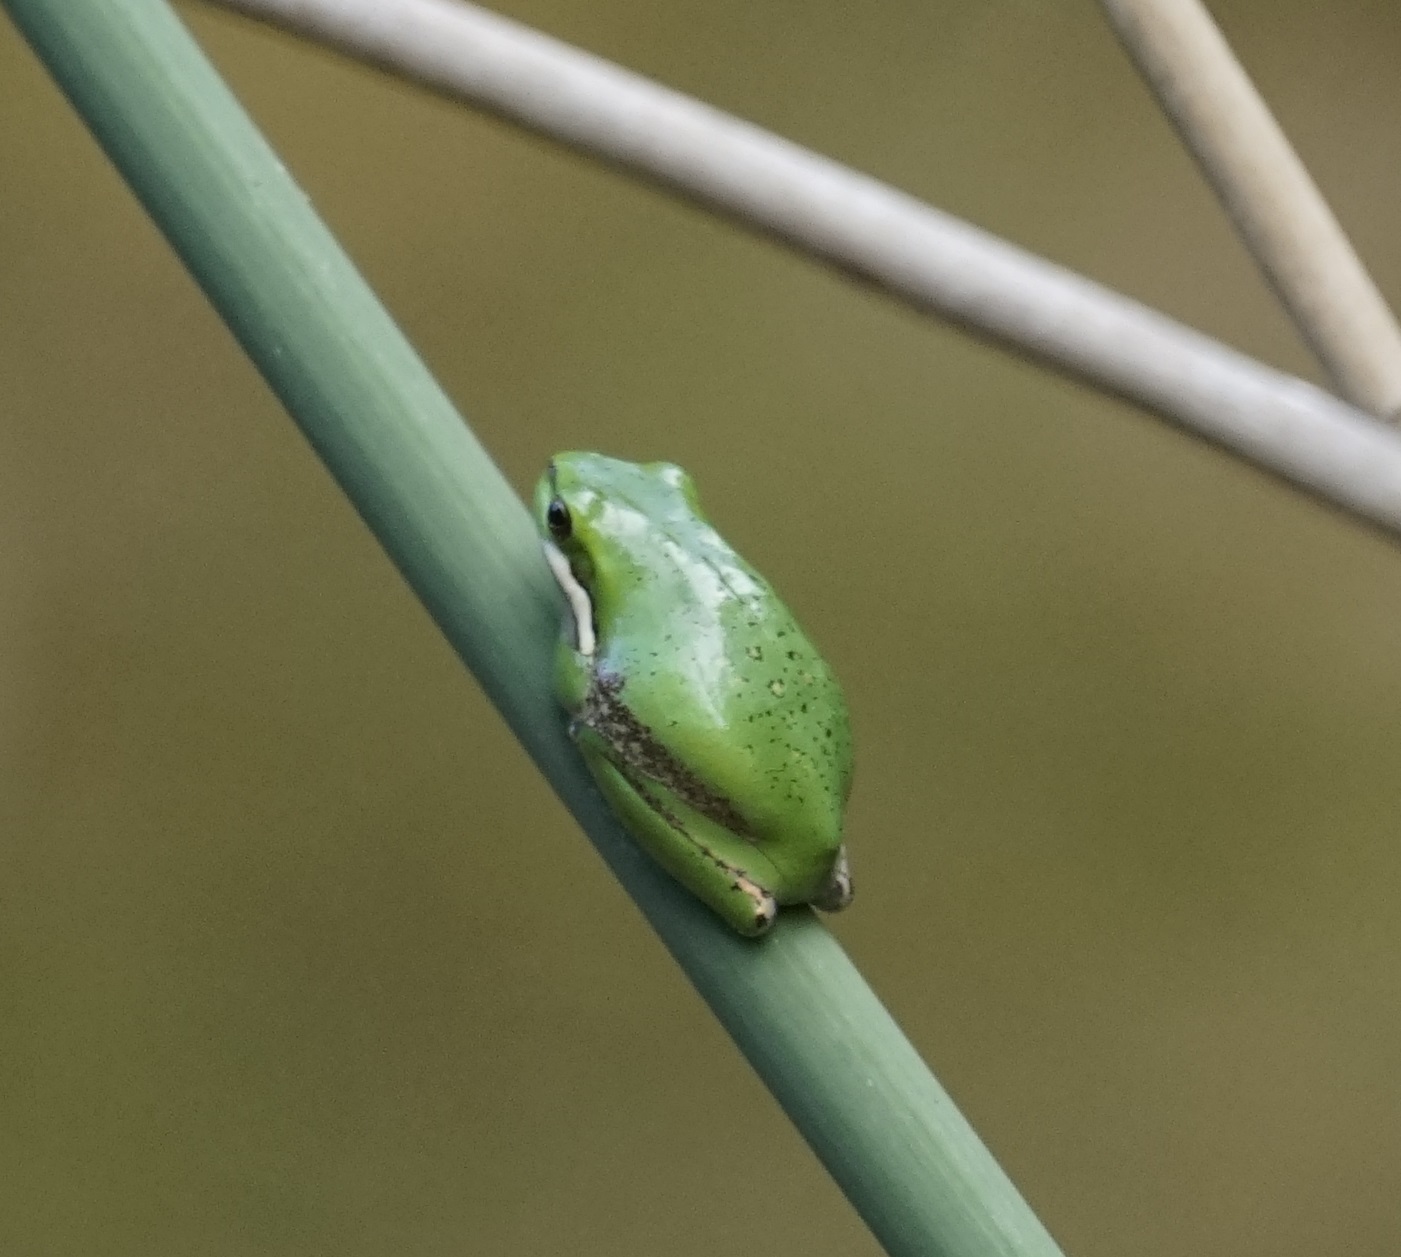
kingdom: Animalia
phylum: Chordata
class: Amphibia
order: Anura
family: Pelodryadidae
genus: Litoria
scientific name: Litoria fallax
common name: Eastern dwarf treefrog
